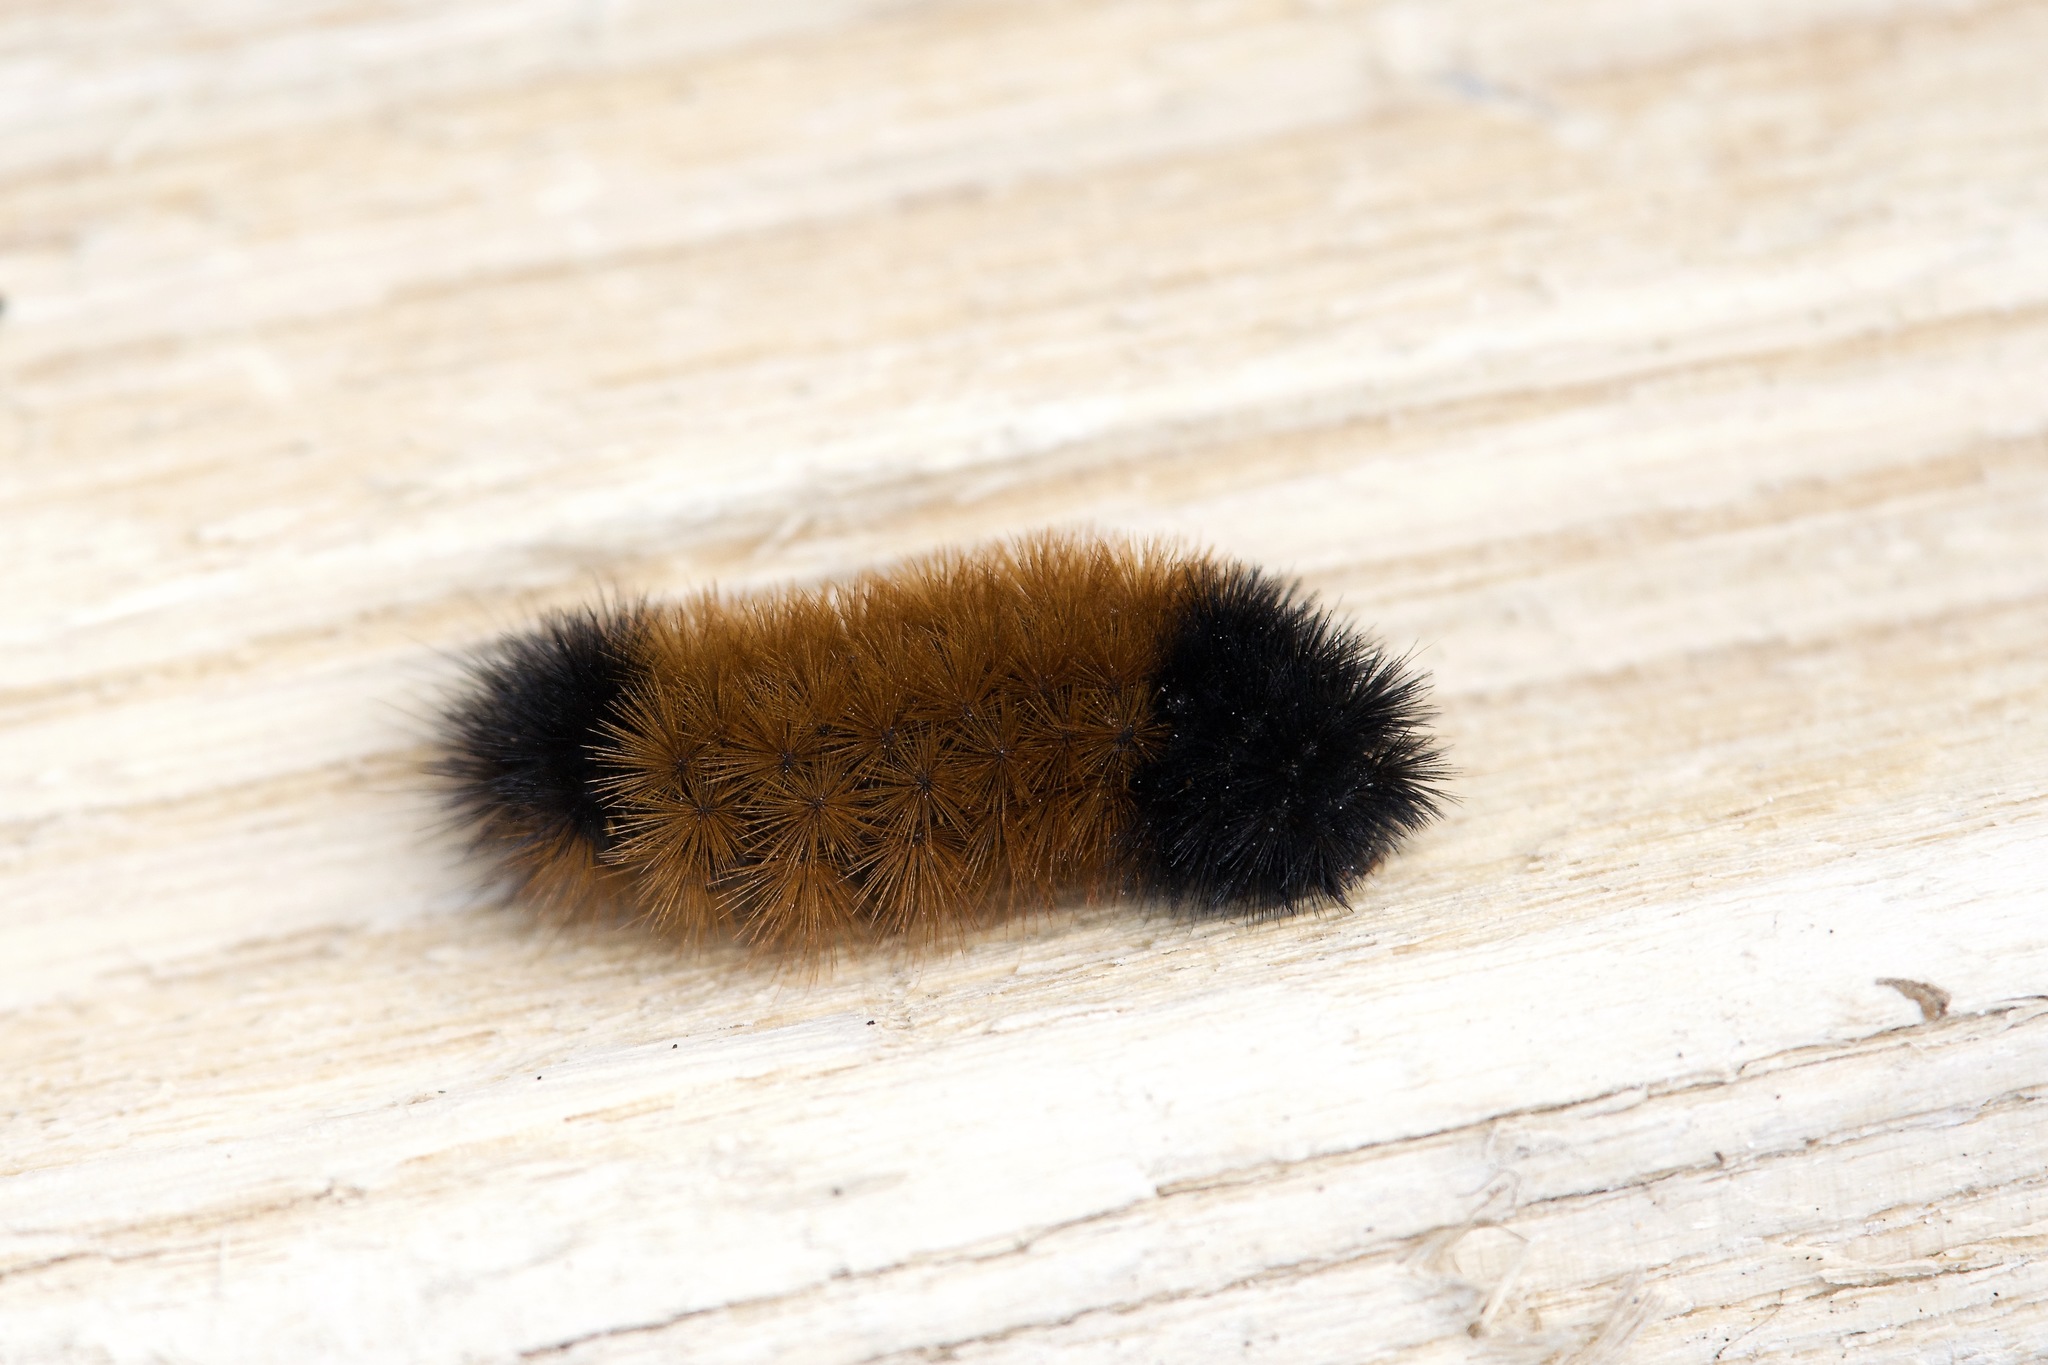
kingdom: Animalia
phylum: Arthropoda
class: Insecta
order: Lepidoptera
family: Erebidae
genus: Pyrrharctia
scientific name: Pyrrharctia isabella
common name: Isabella tiger moth
